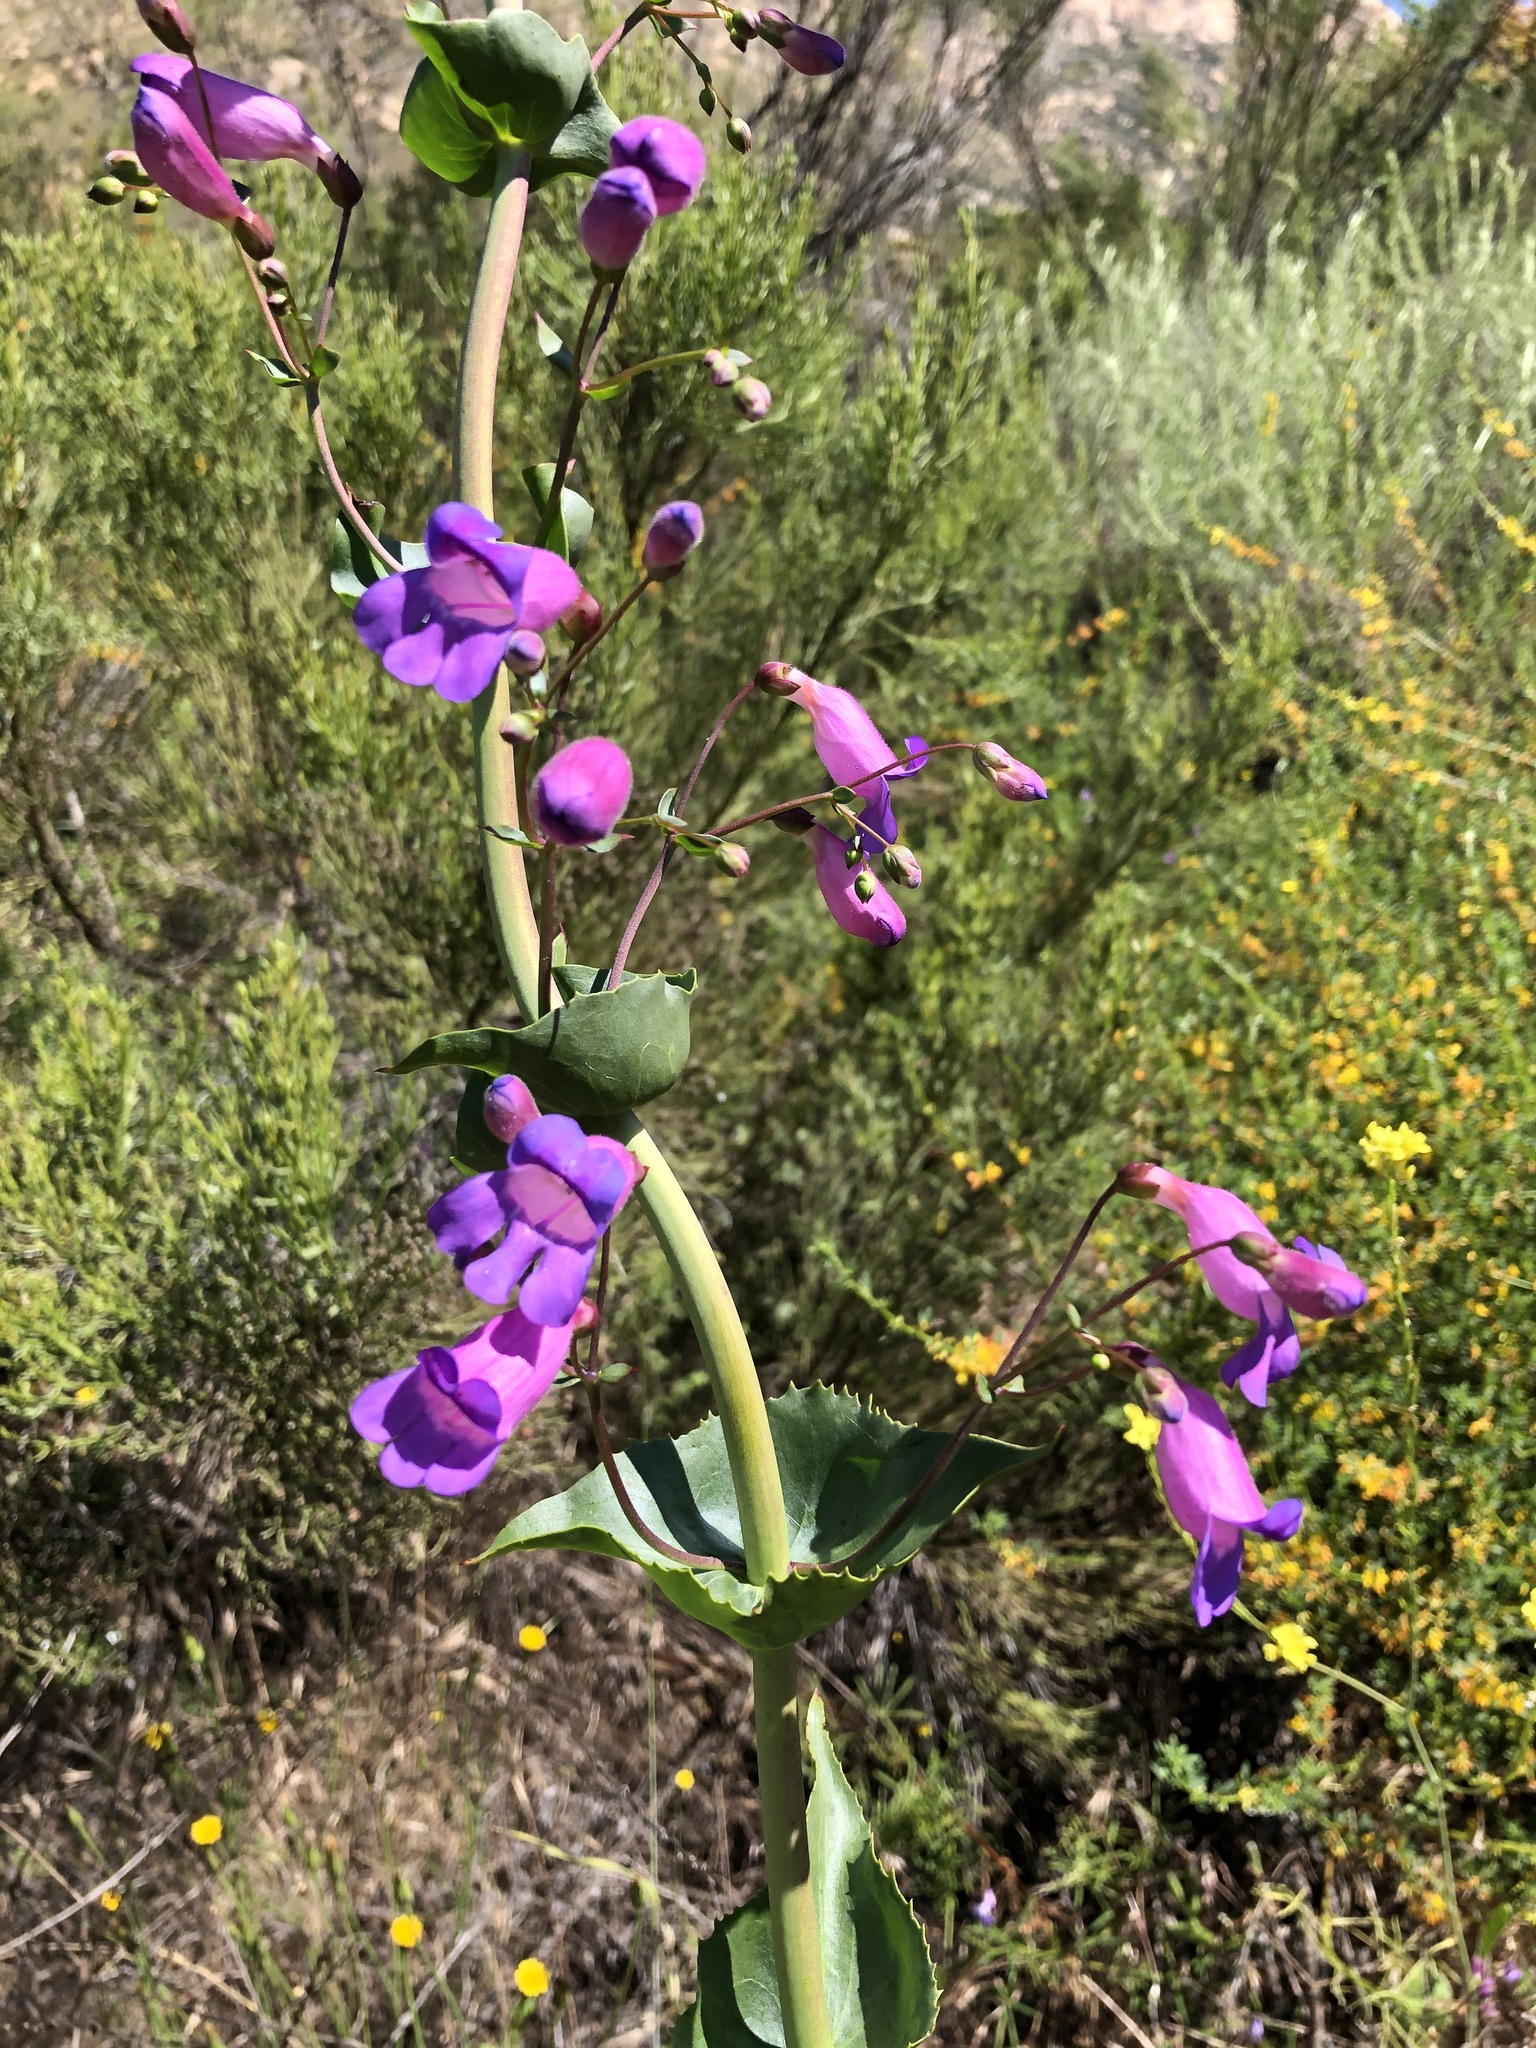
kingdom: Plantae
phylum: Tracheophyta
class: Magnoliopsida
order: Lamiales
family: Plantaginaceae
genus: Penstemon
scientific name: Penstemon spectabilis
